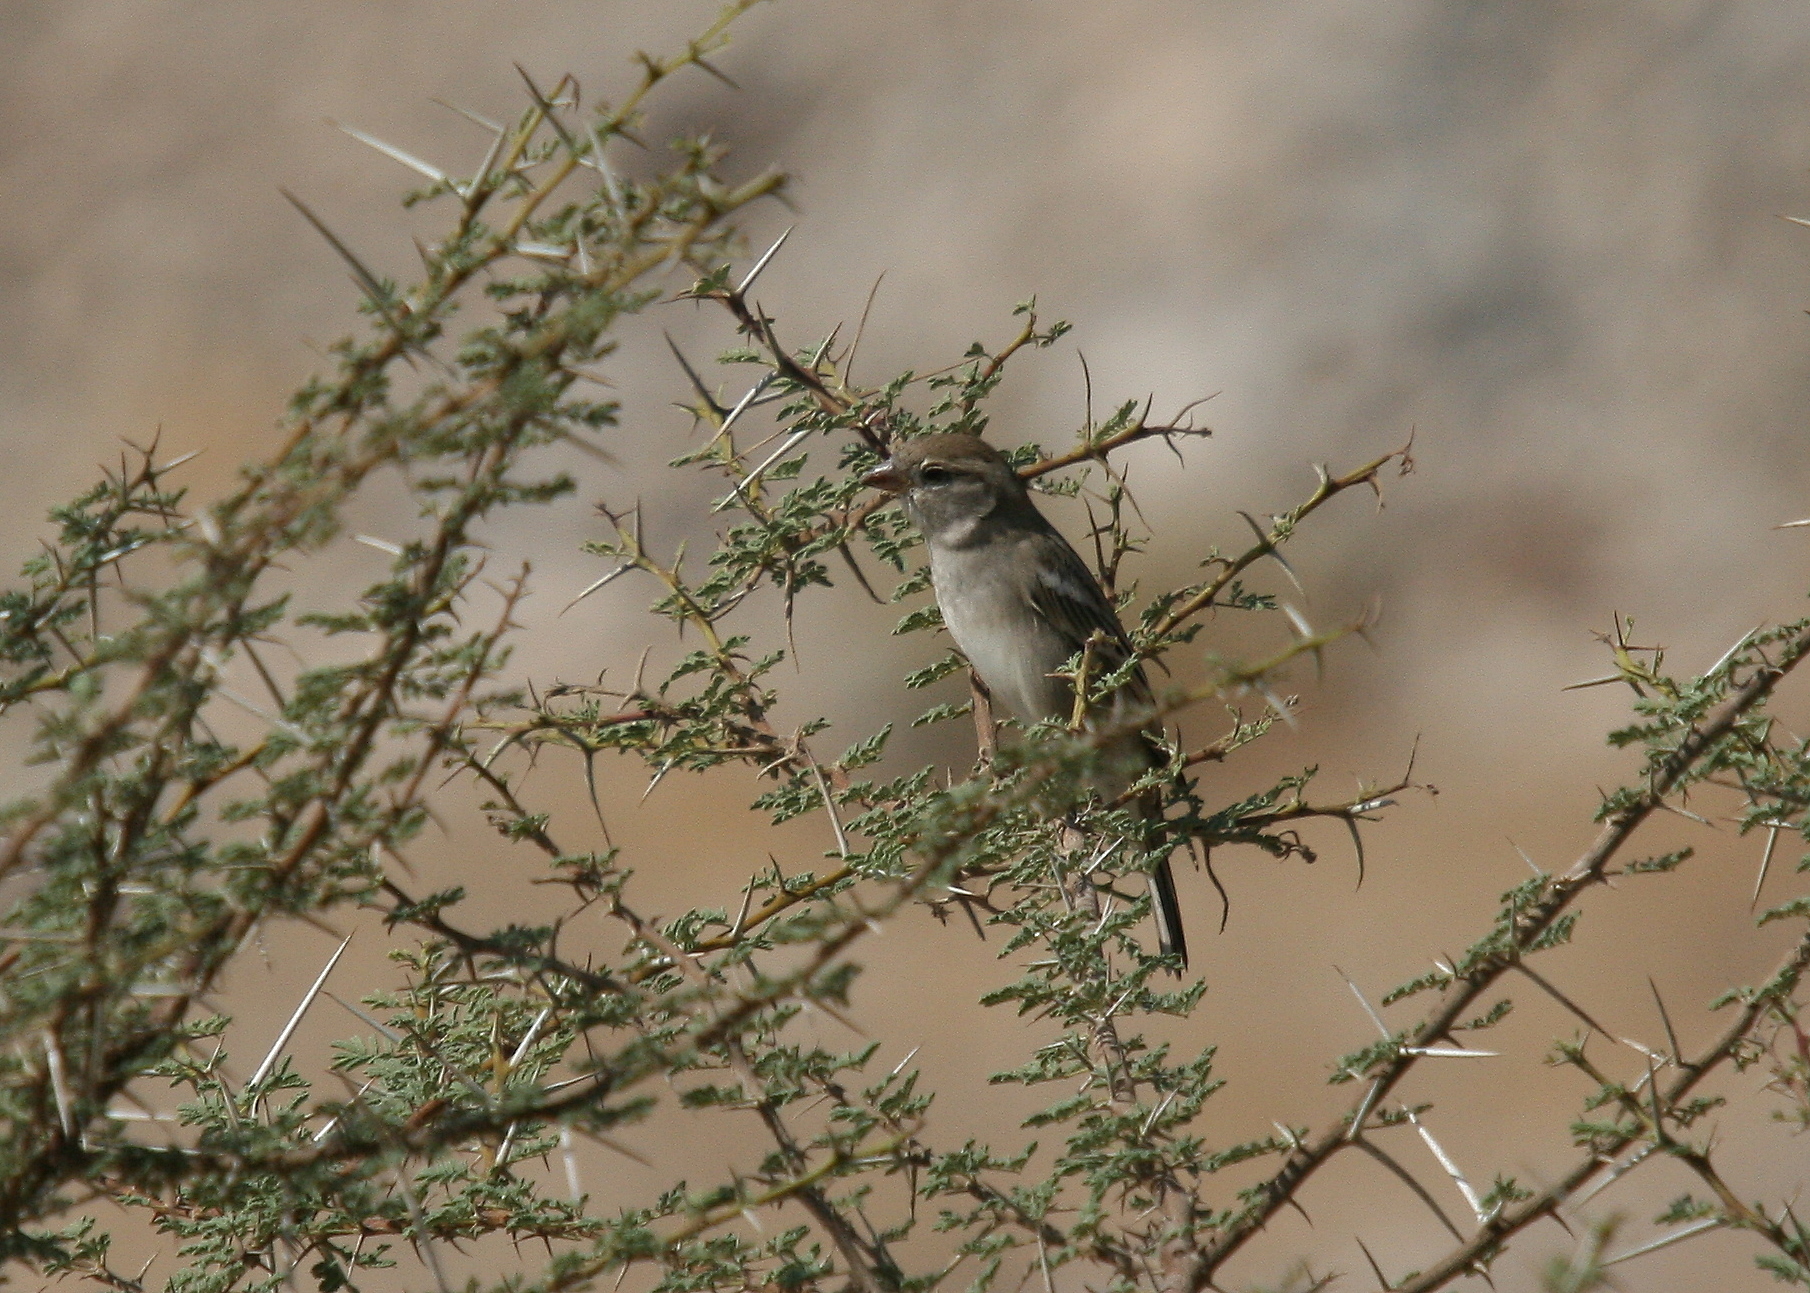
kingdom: Animalia
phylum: Chordata
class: Aves
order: Passeriformes
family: Passeridae
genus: Passer
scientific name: Passer domesticus
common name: House sparrow
